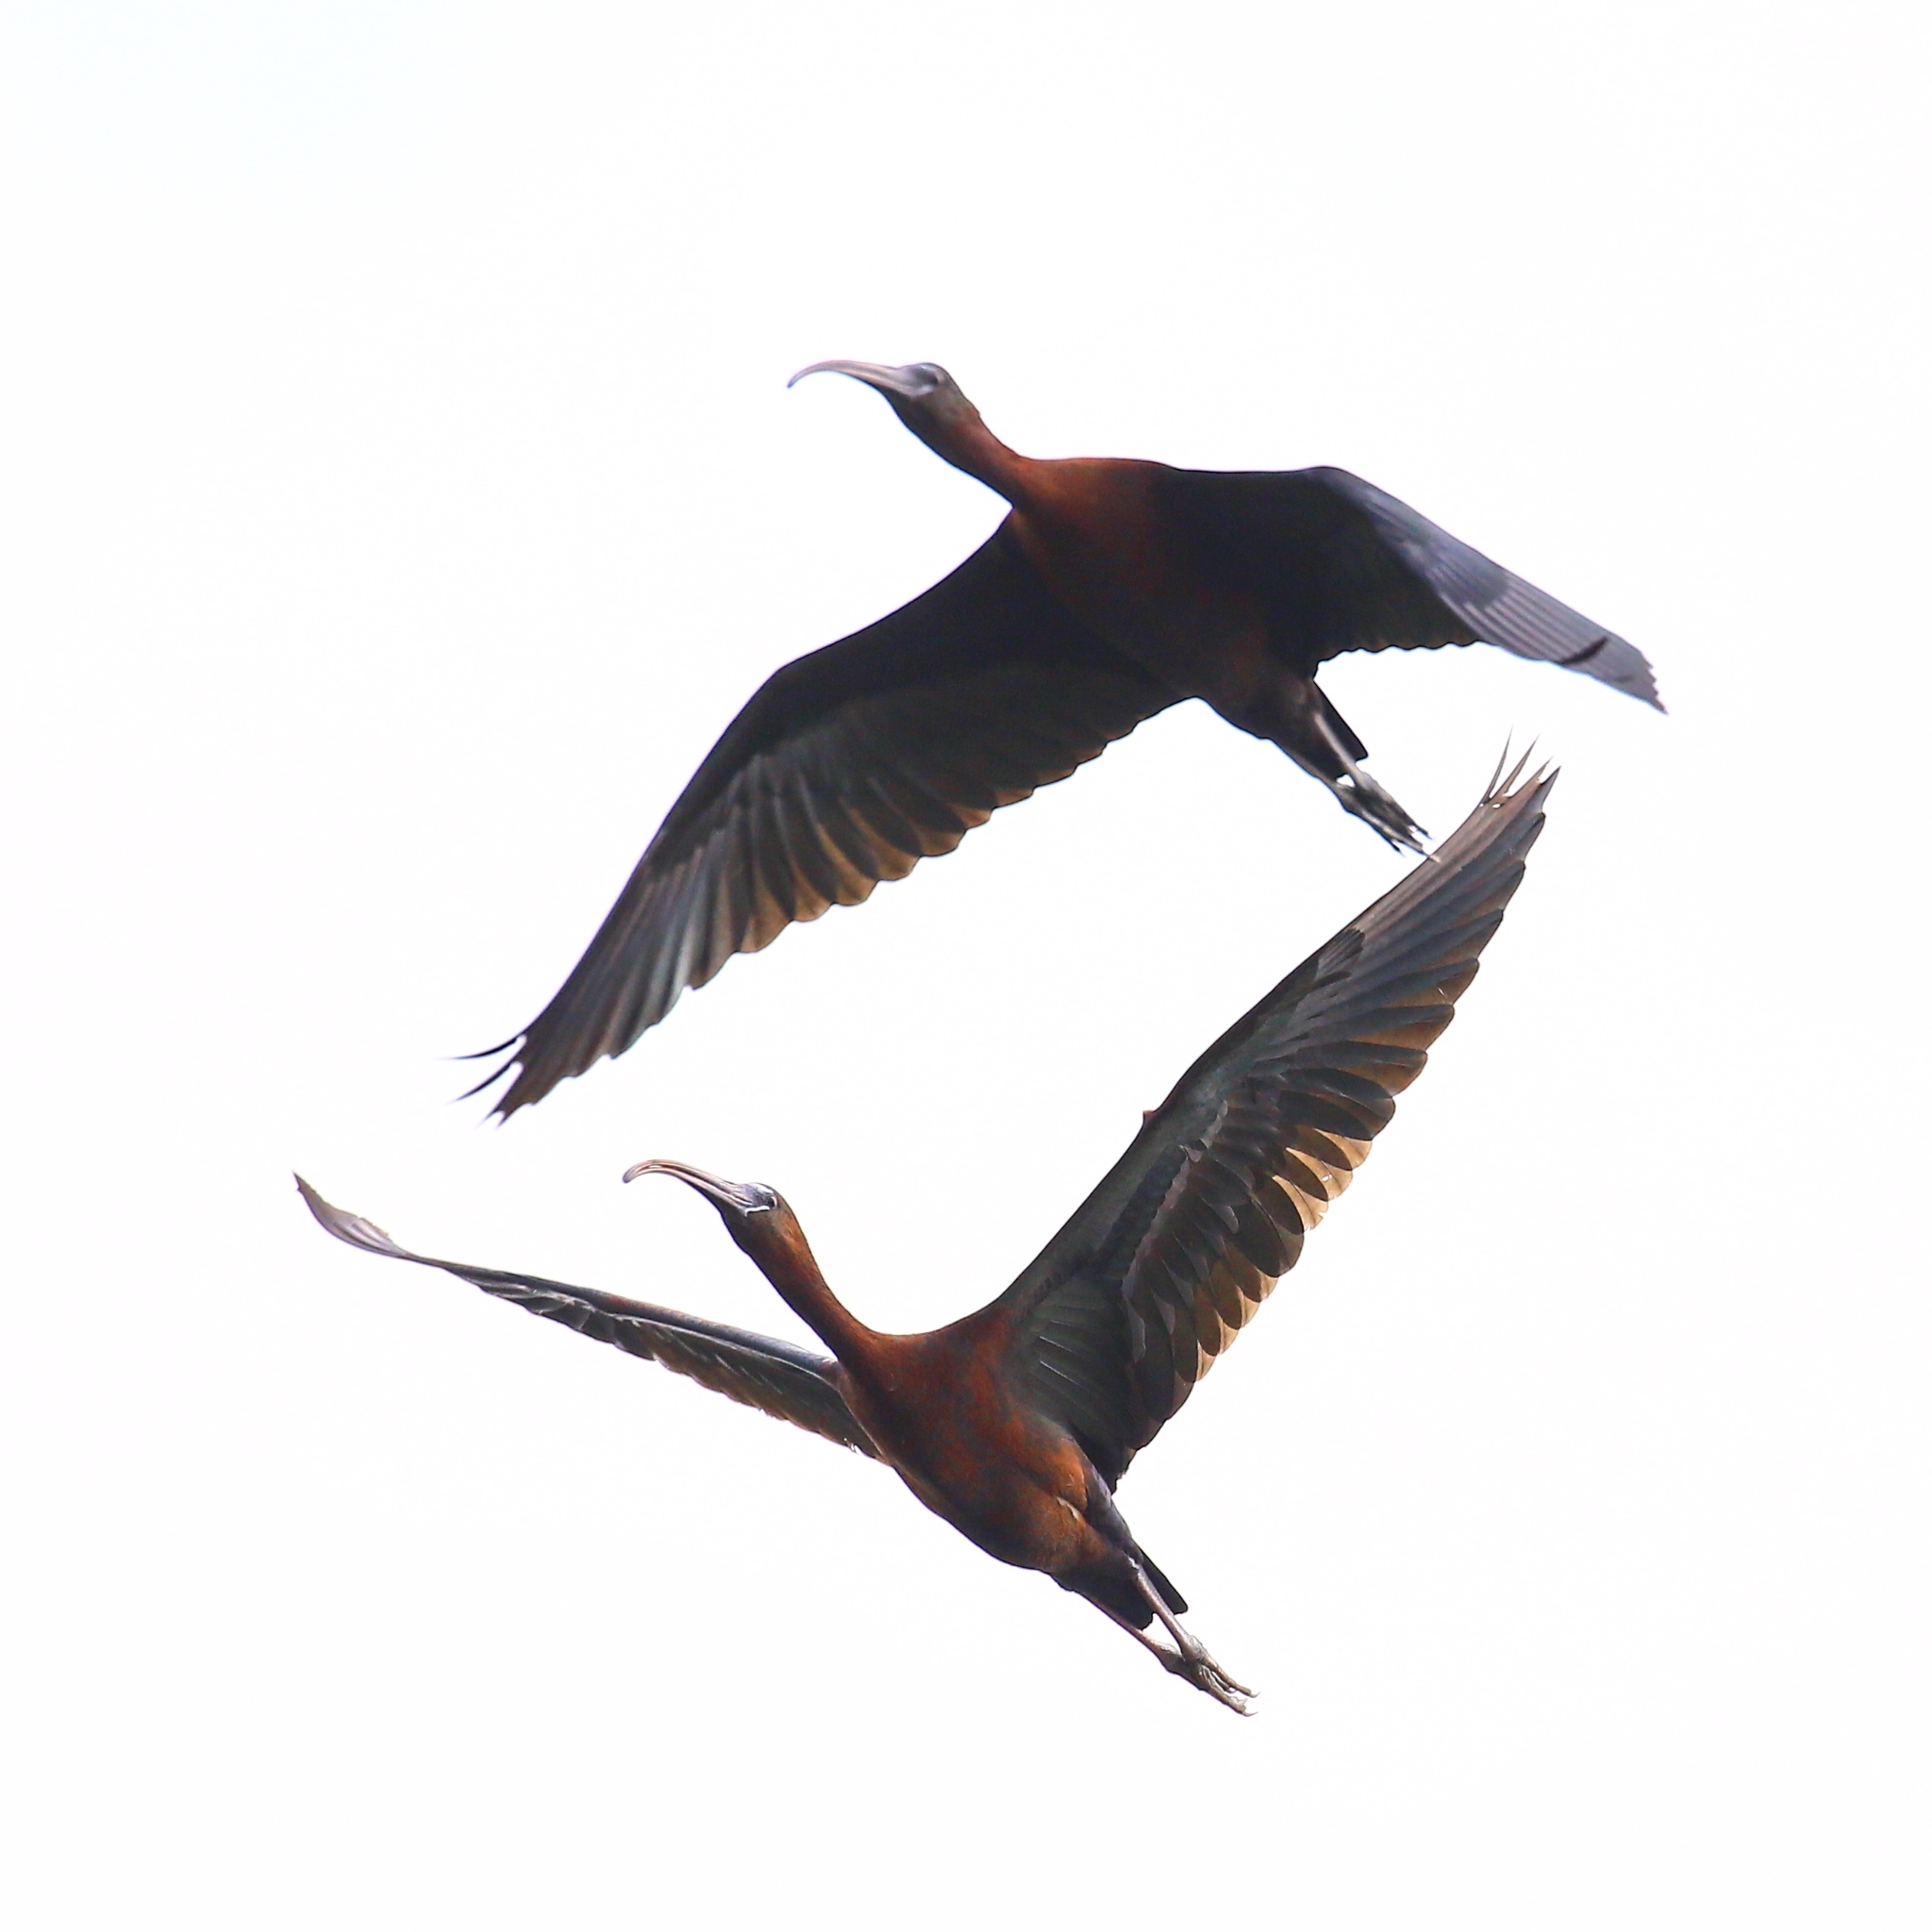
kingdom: Animalia
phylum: Chordata
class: Aves
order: Pelecaniformes
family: Threskiornithidae
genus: Plegadis
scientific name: Plegadis falcinellus
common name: Glossy ibis
